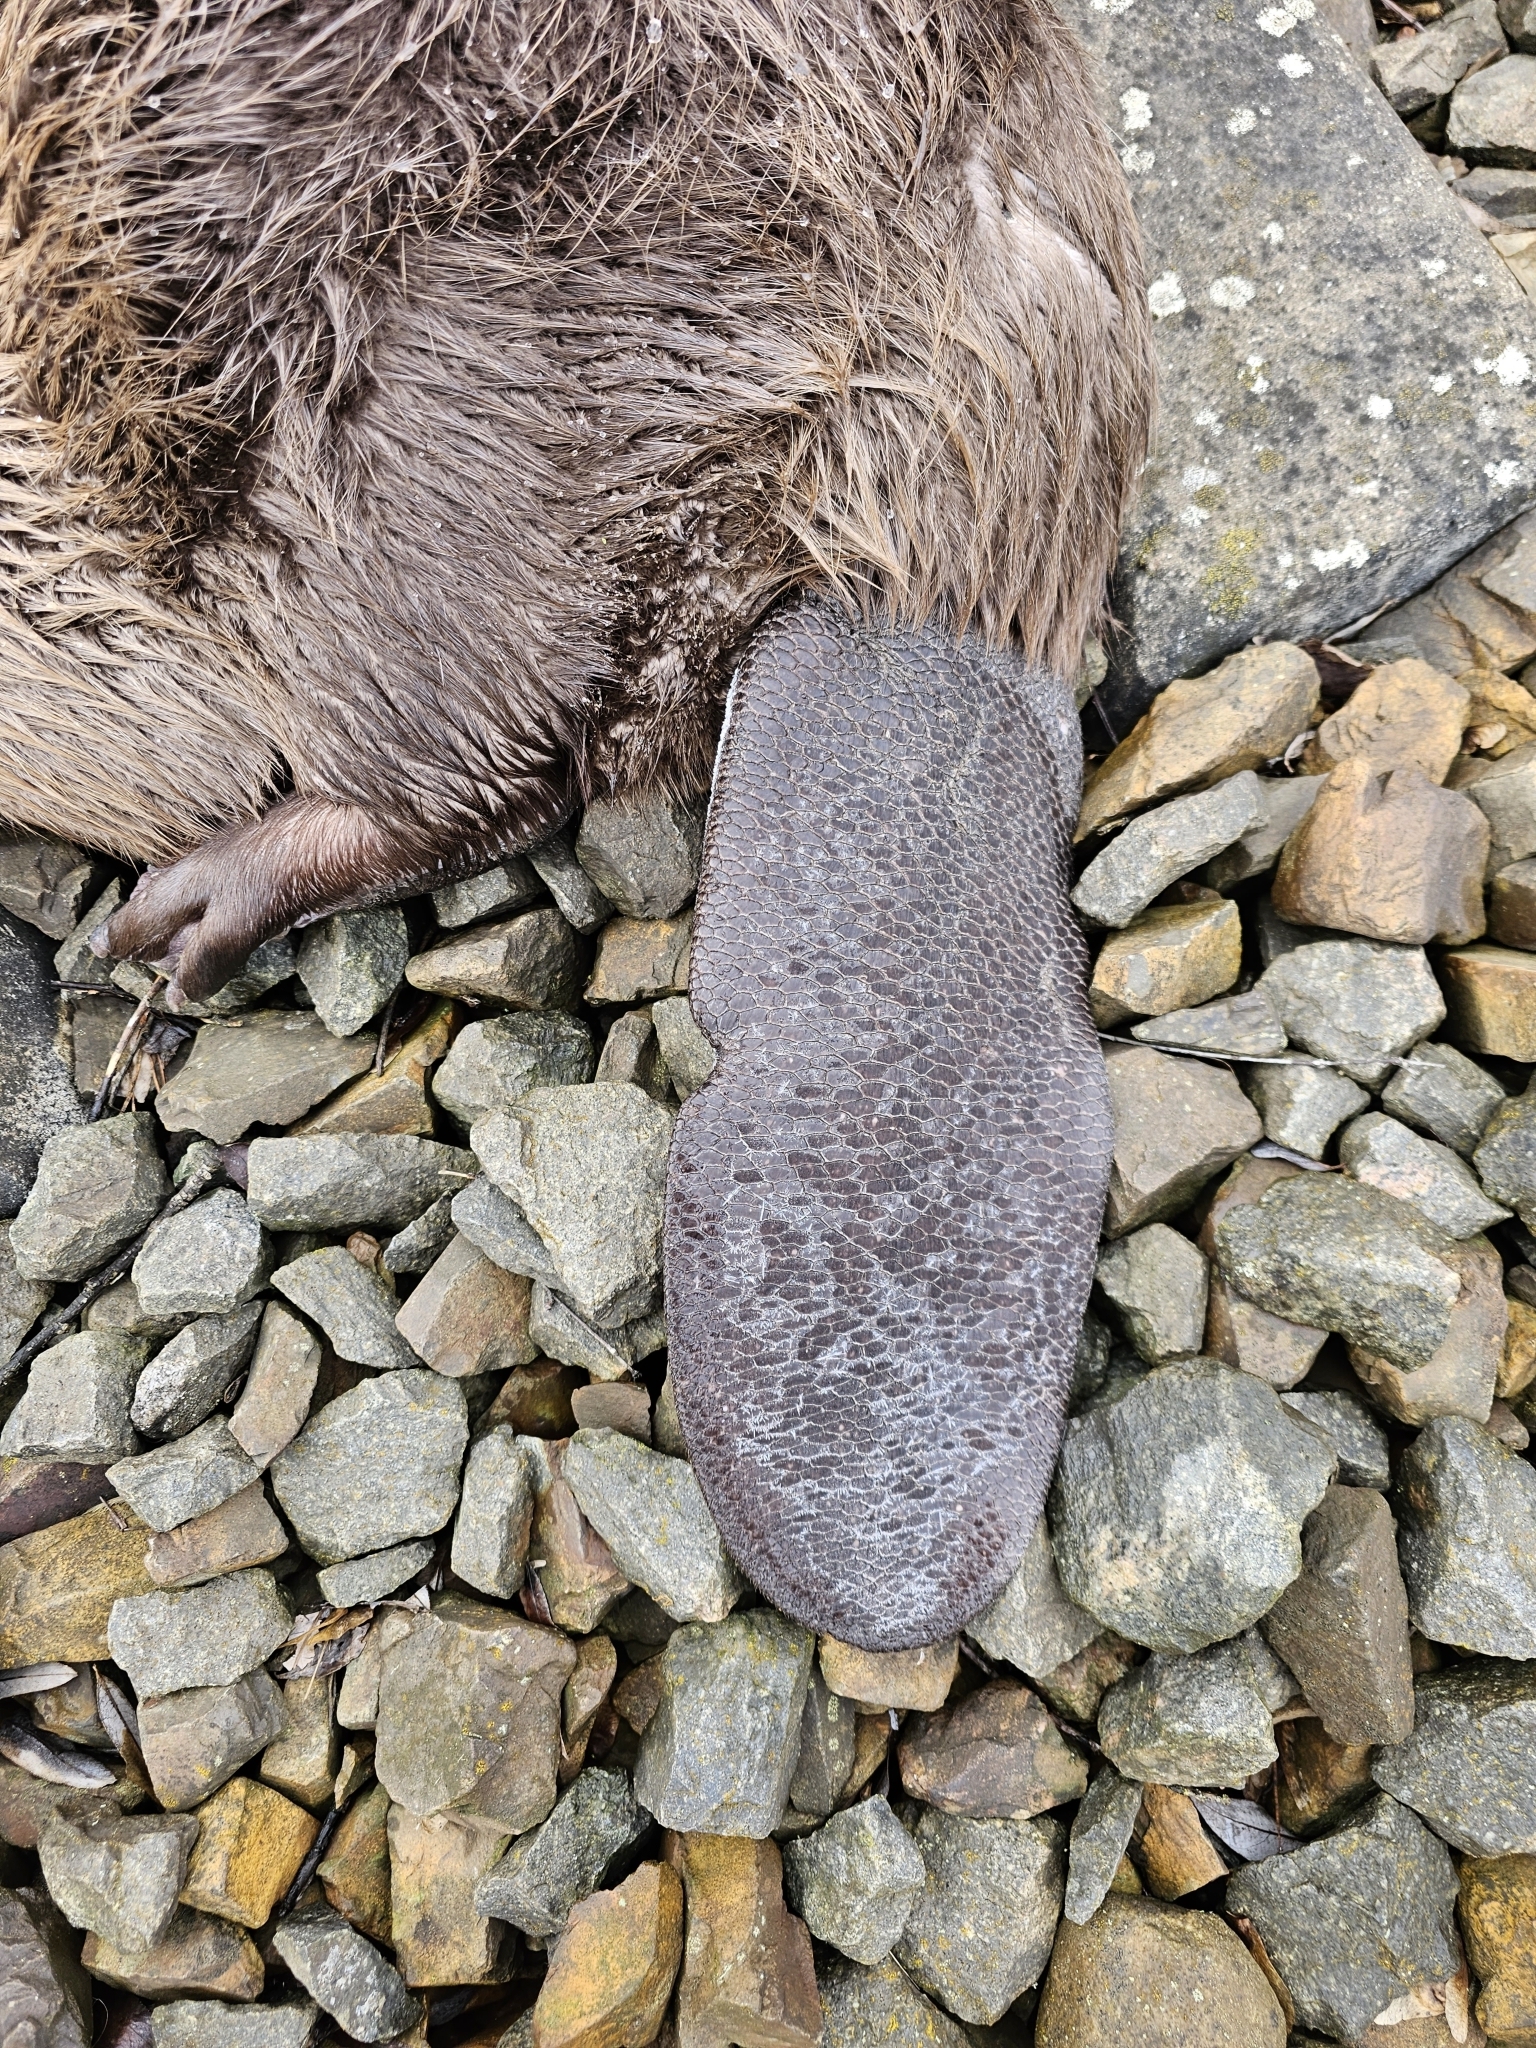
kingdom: Animalia
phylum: Chordata
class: Mammalia
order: Rodentia
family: Castoridae
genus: Castor
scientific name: Castor fiber
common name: Eurasian beaver
